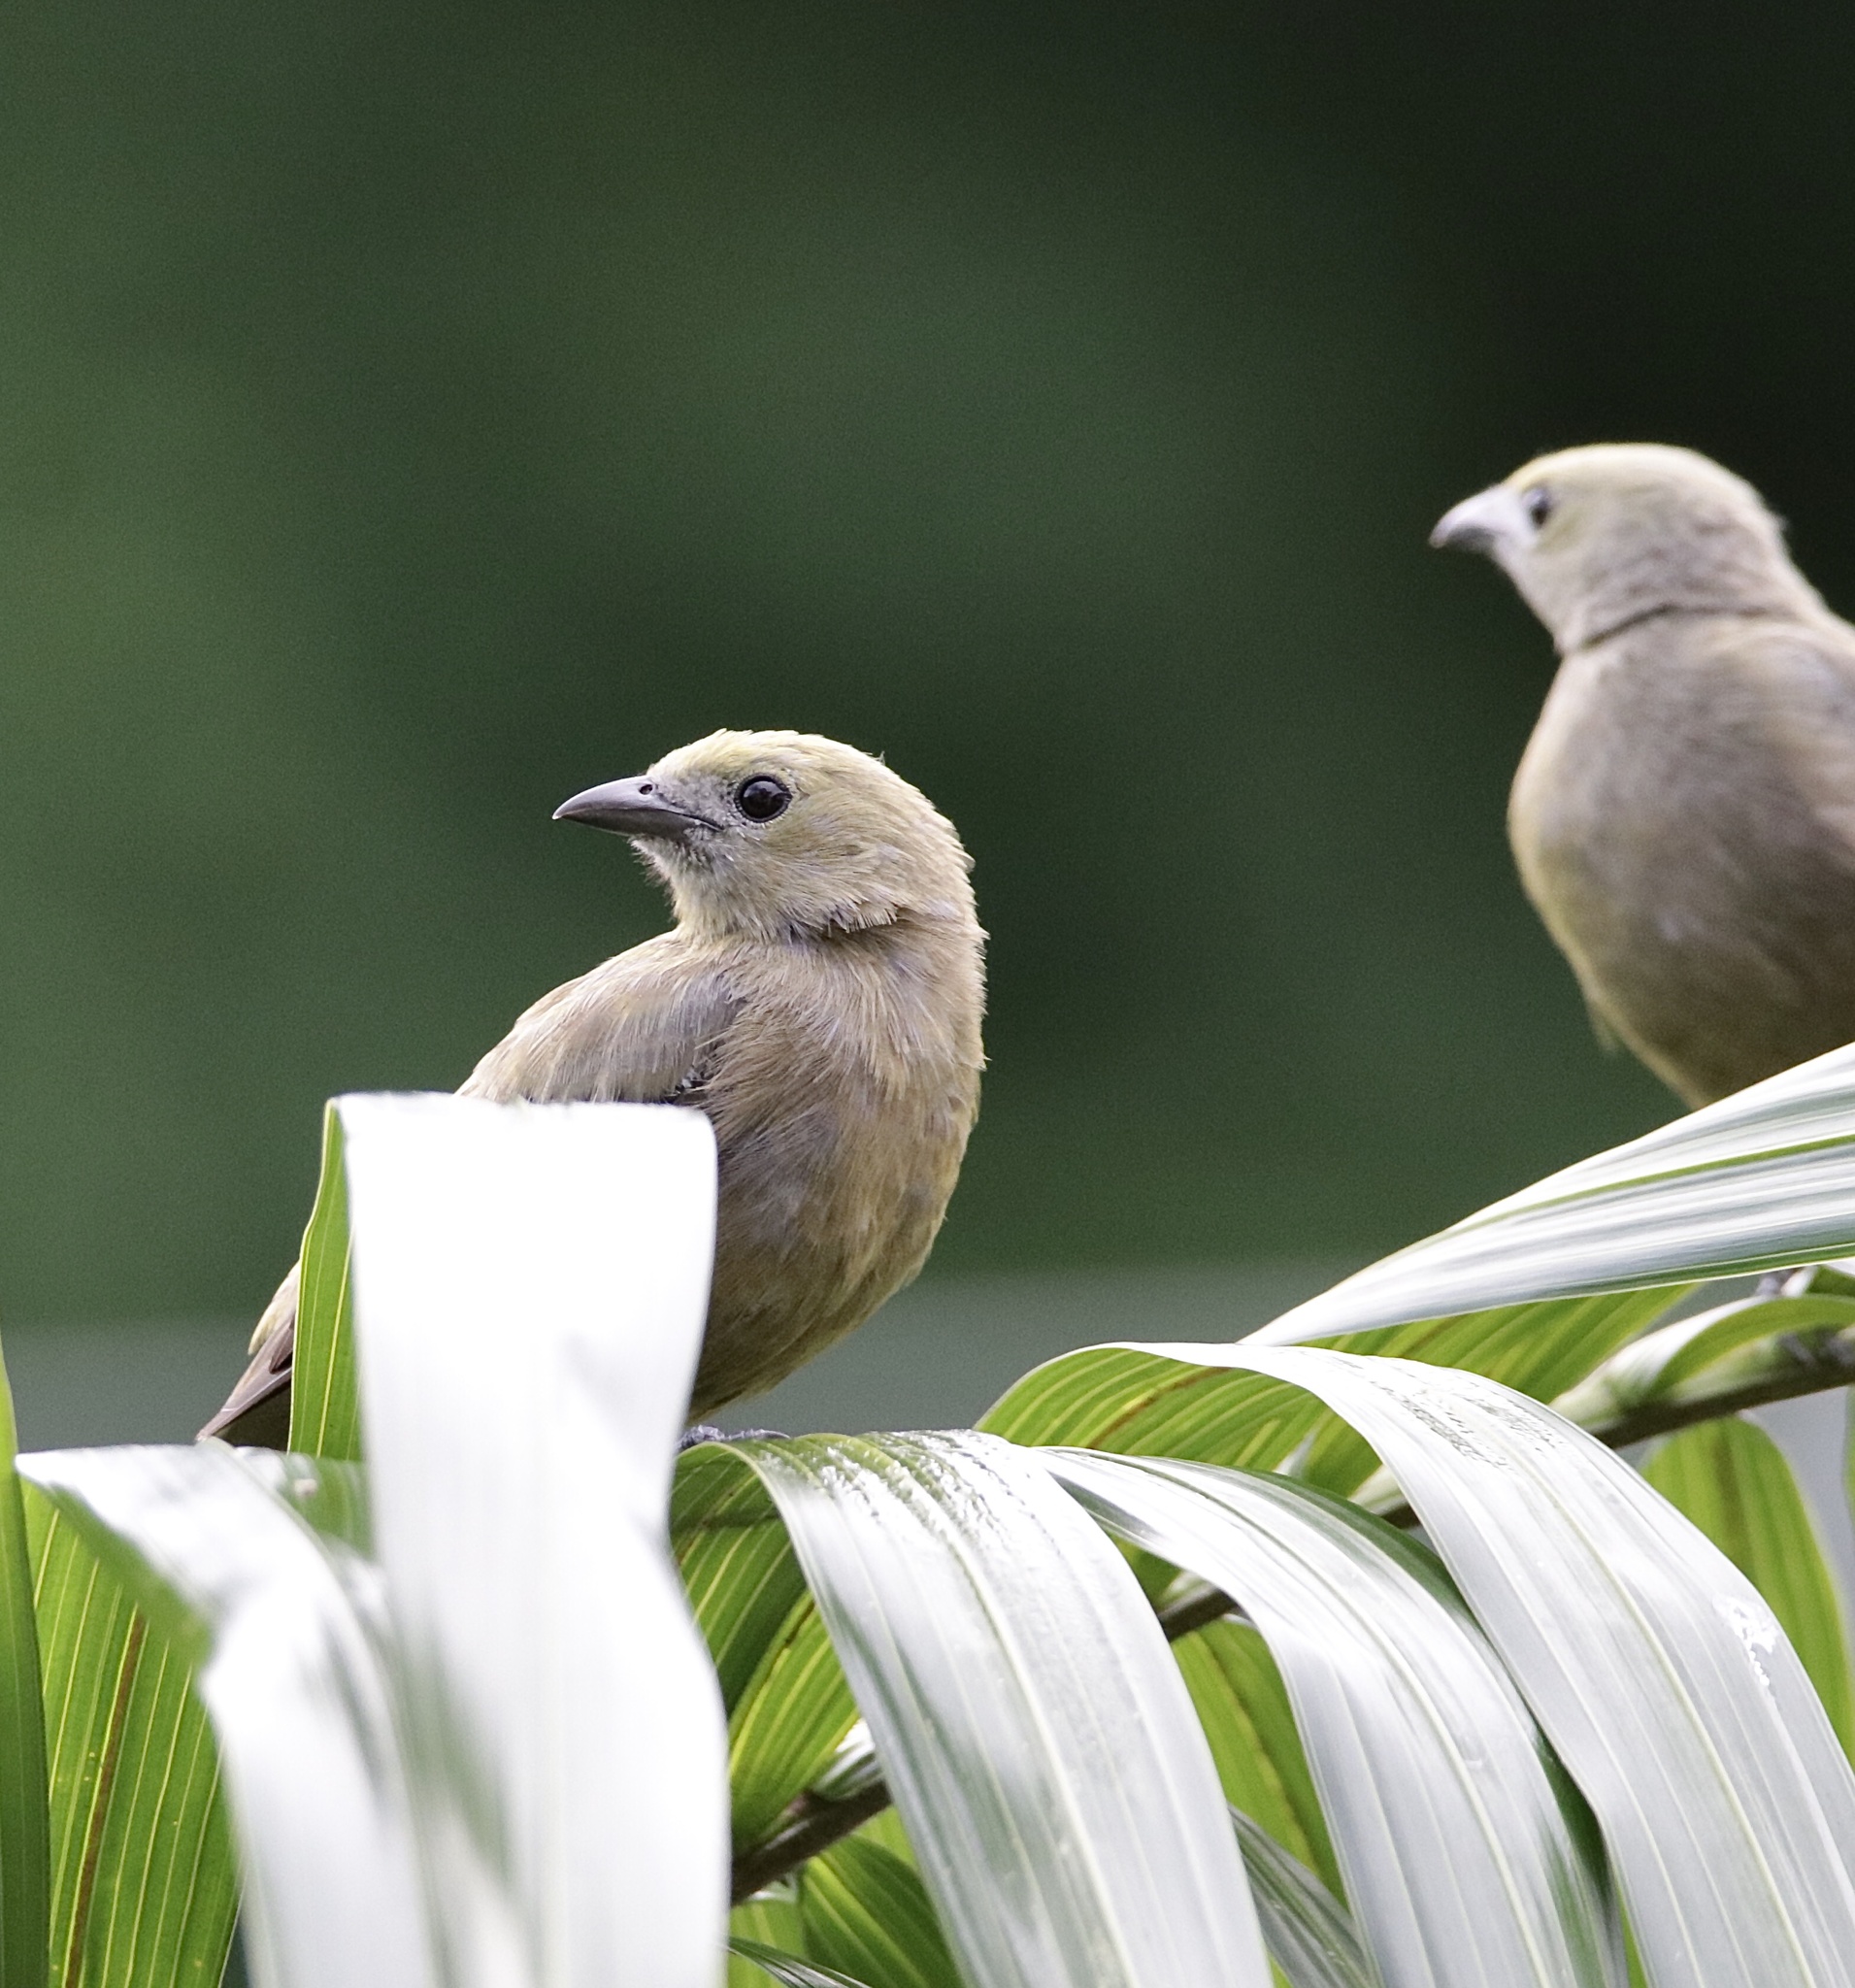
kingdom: Animalia
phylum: Chordata
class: Aves
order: Passeriformes
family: Thraupidae
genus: Thraupis
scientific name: Thraupis palmarum
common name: Palm tanager
